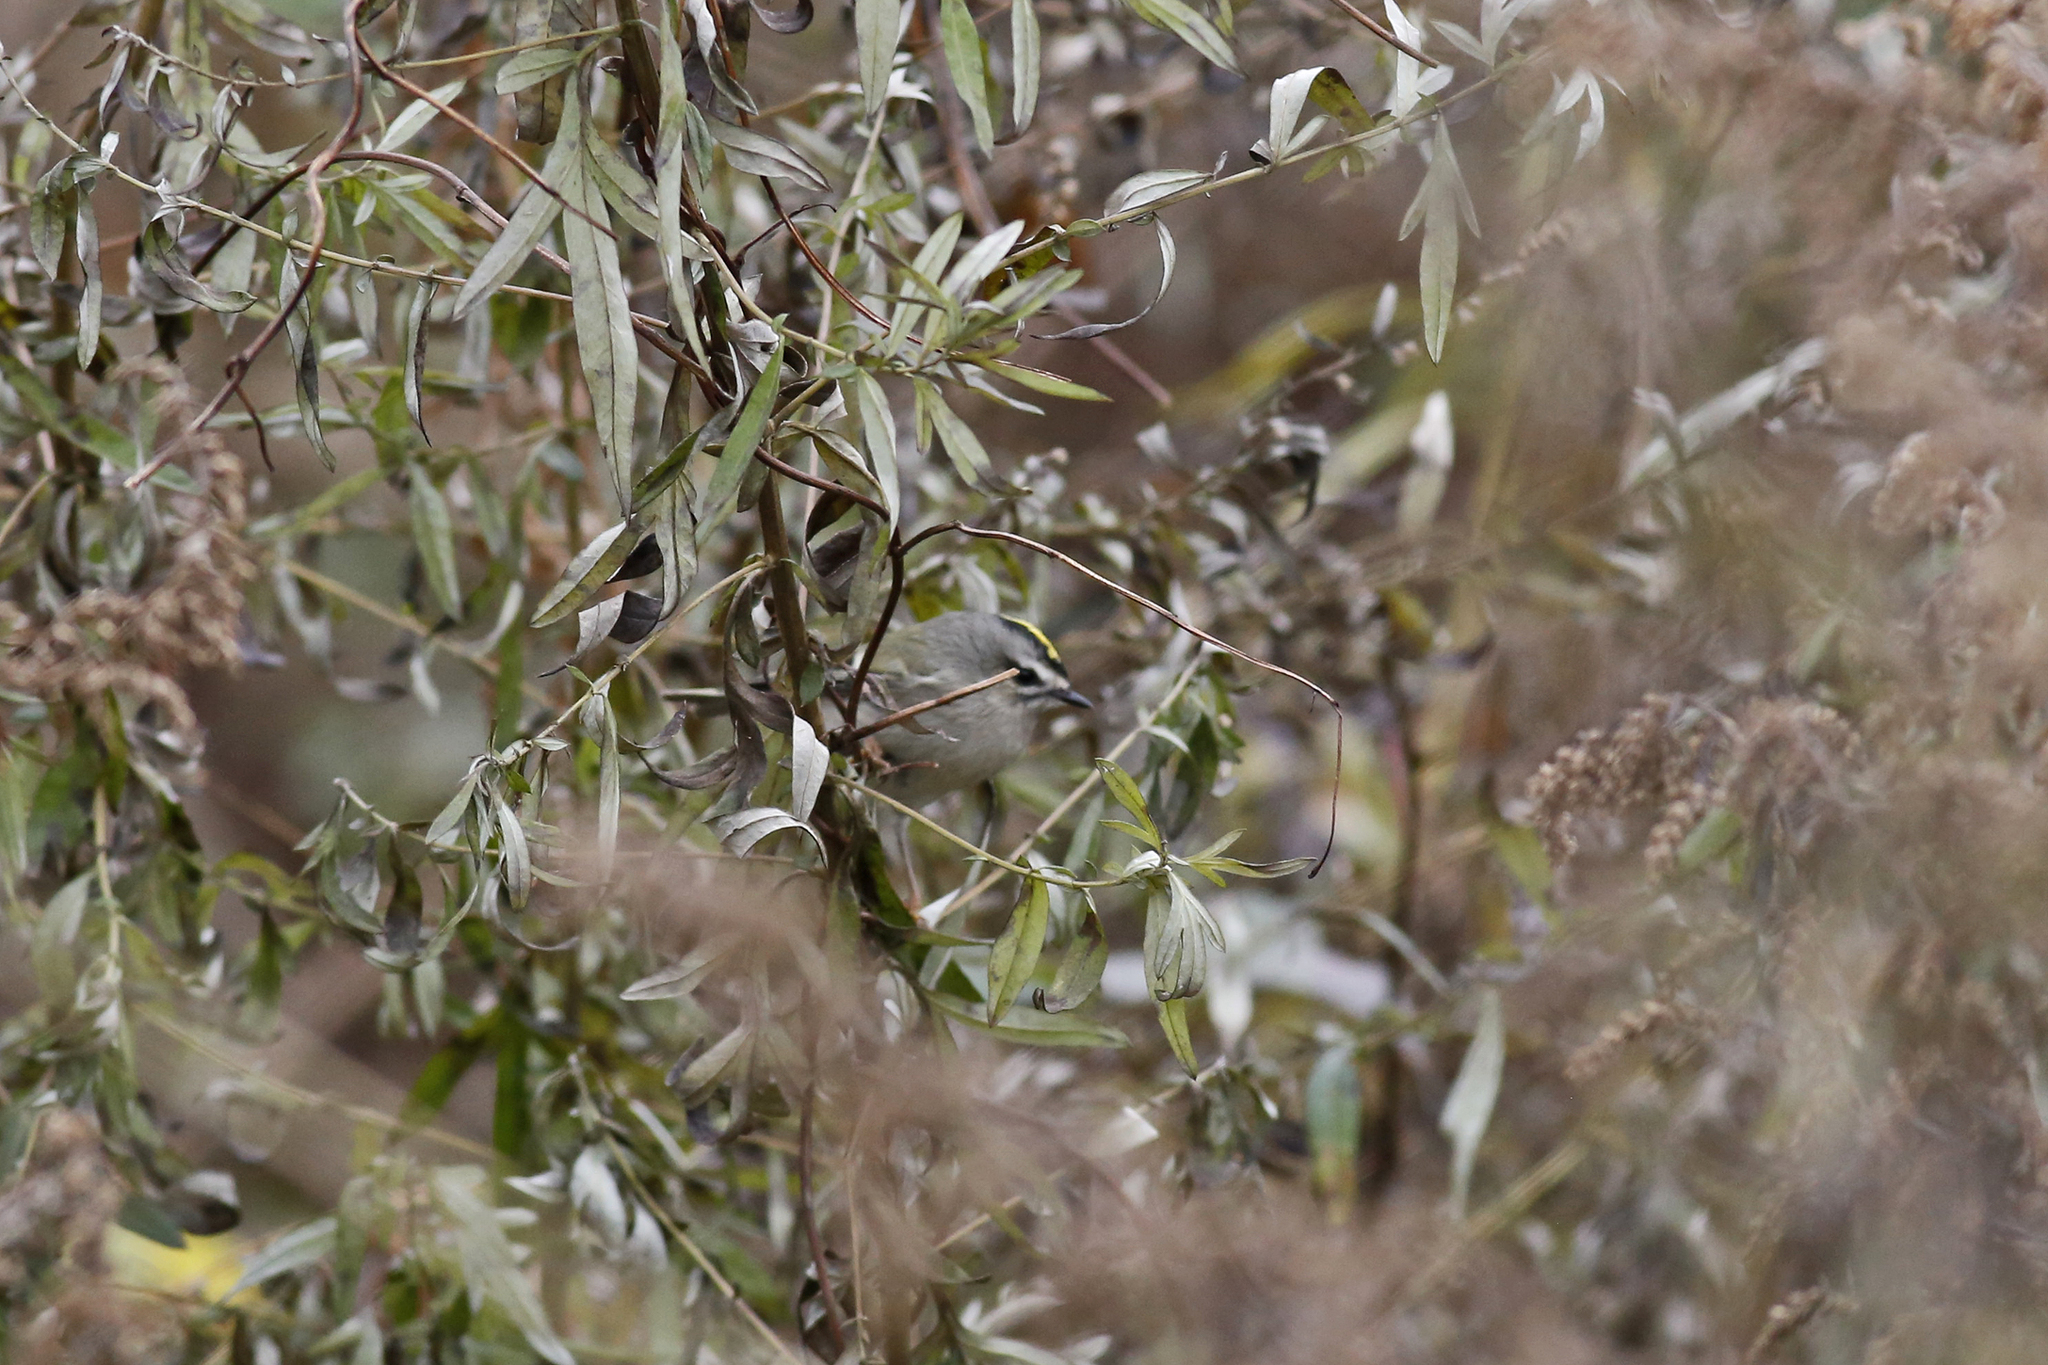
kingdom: Animalia
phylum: Chordata
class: Aves
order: Passeriformes
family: Regulidae
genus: Regulus
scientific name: Regulus satrapa
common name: Golden-crowned kinglet
